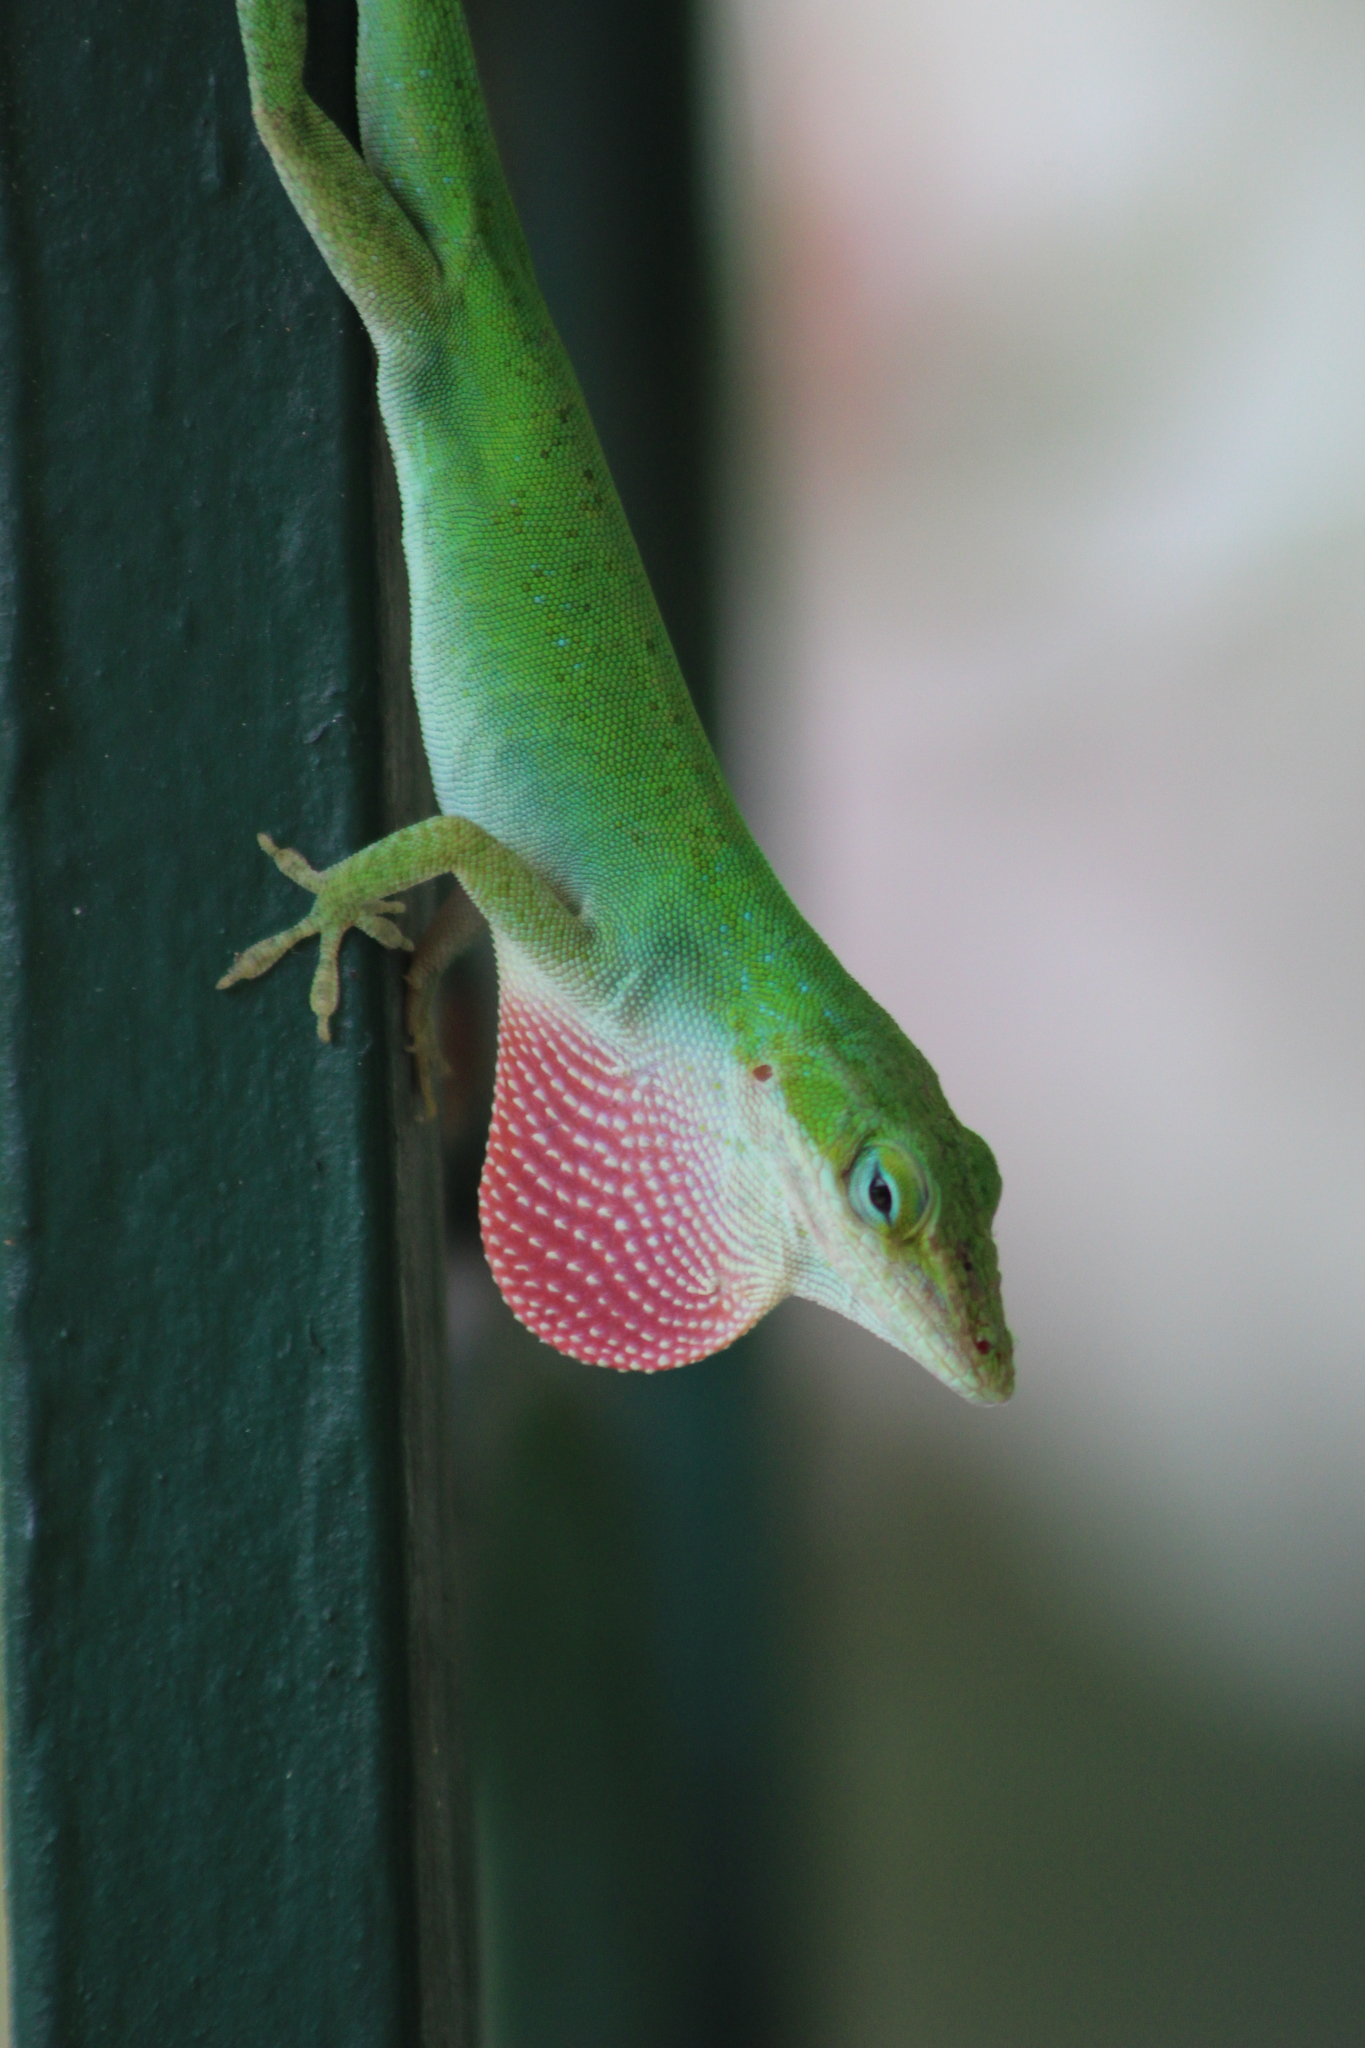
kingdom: Animalia
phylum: Chordata
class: Squamata
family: Dactyloidae
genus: Anolis
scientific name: Anolis carolinensis
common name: Green anole
